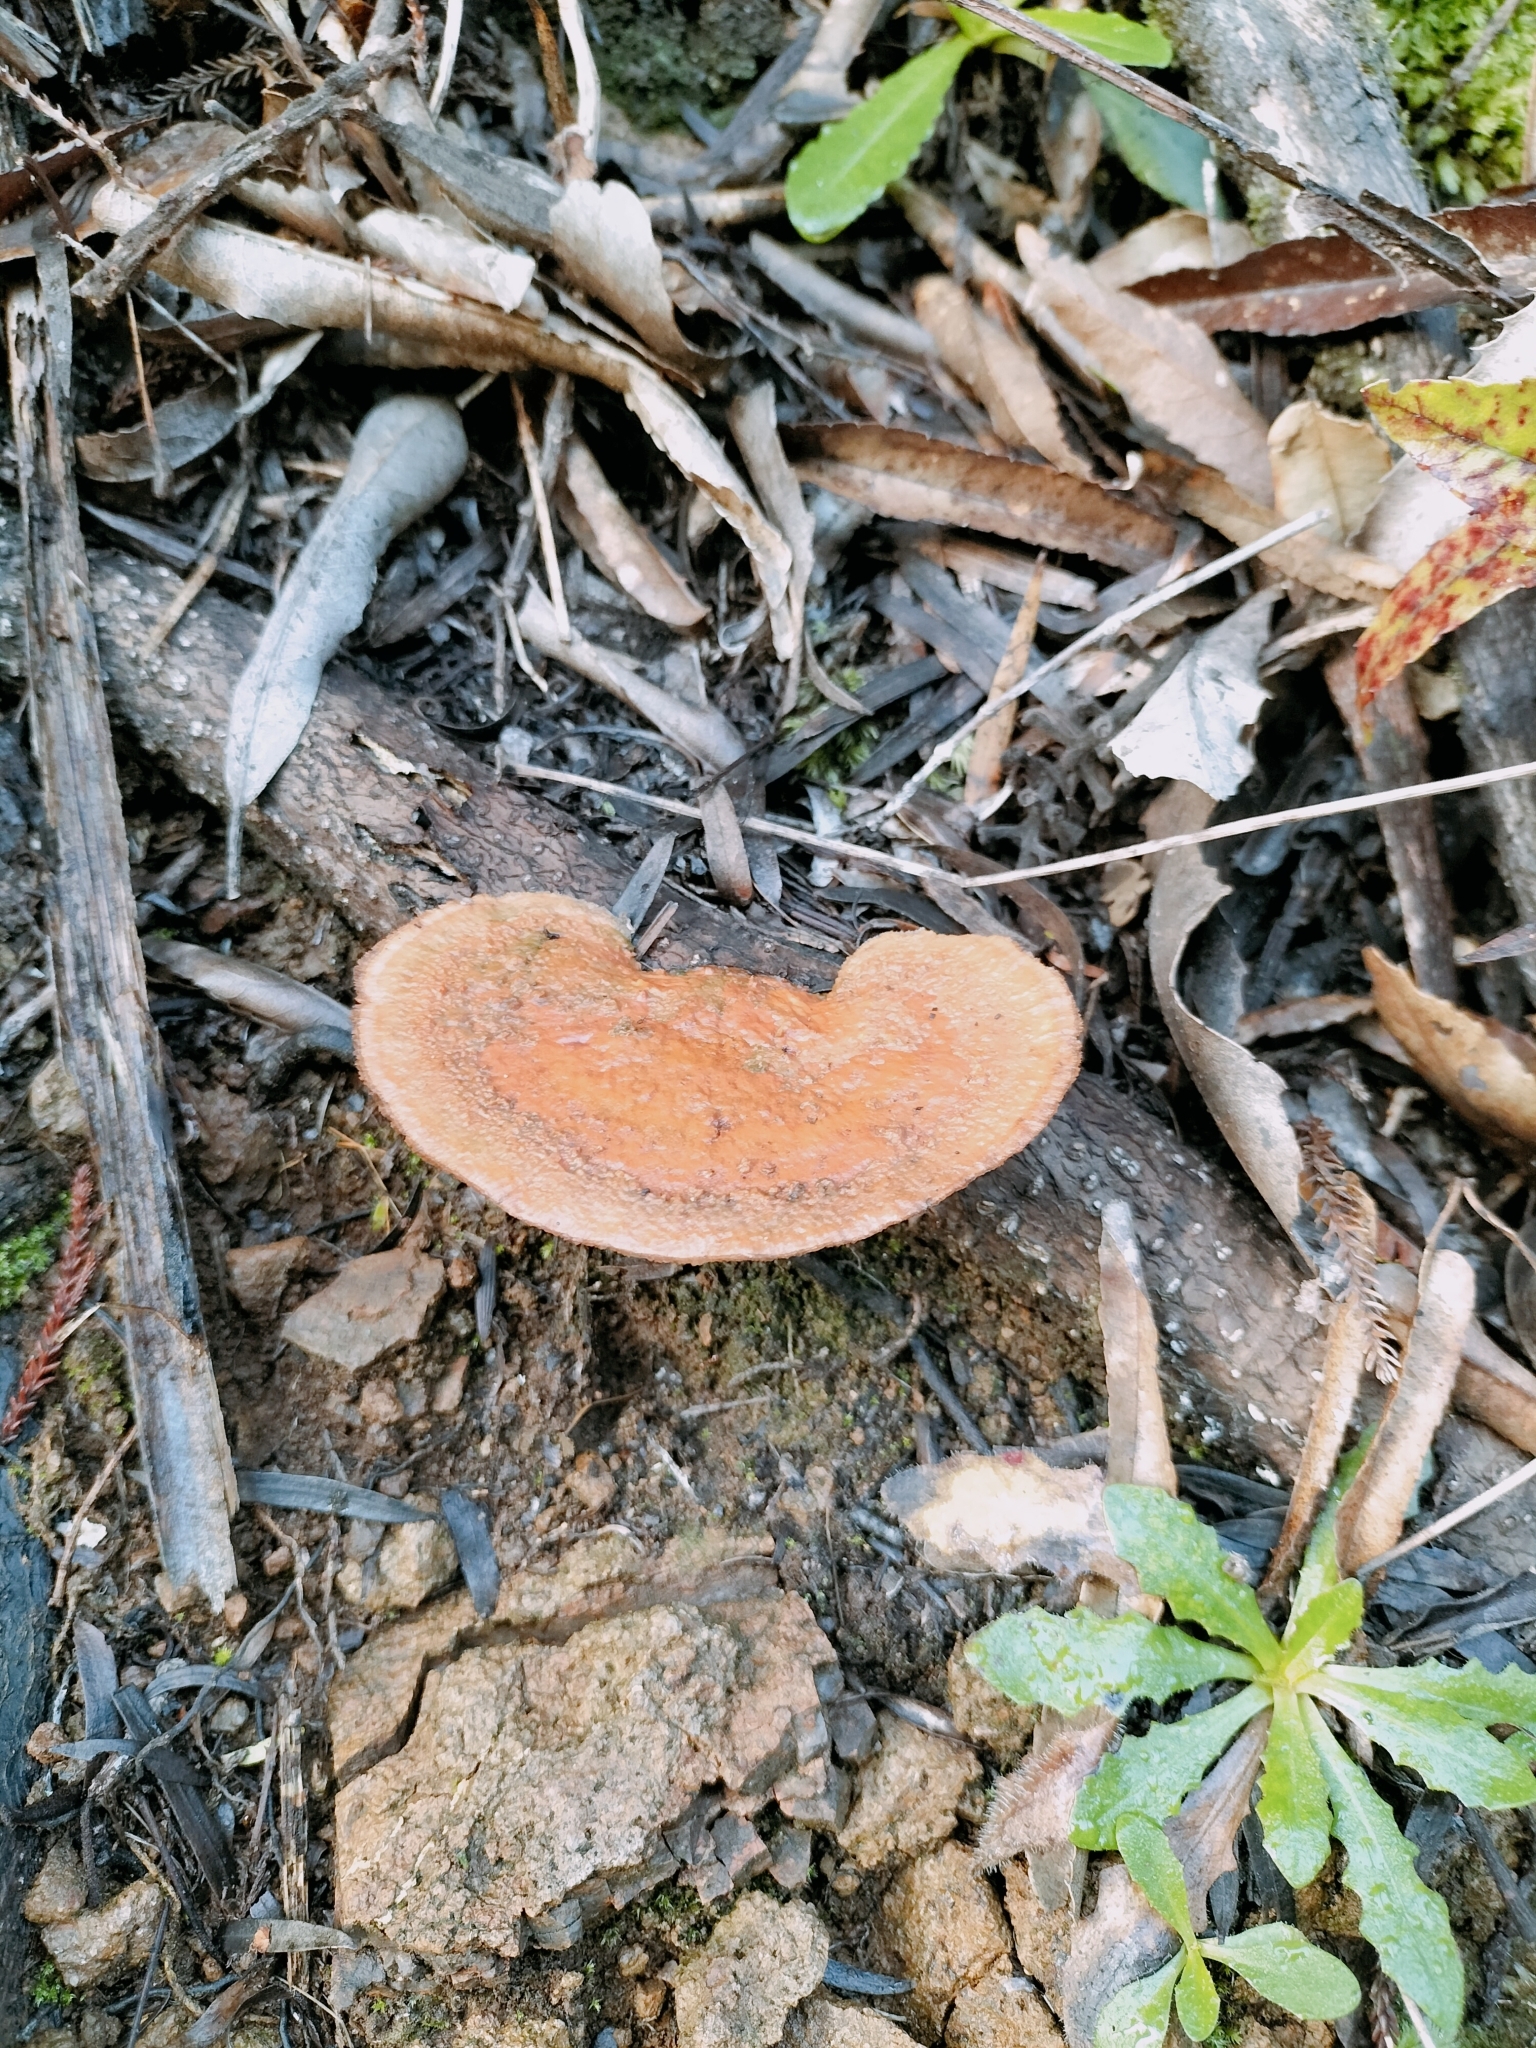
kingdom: Fungi
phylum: Basidiomycota
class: Agaricomycetes
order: Polyporales
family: Polyporaceae
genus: Trametes
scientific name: Trametes coccinea
